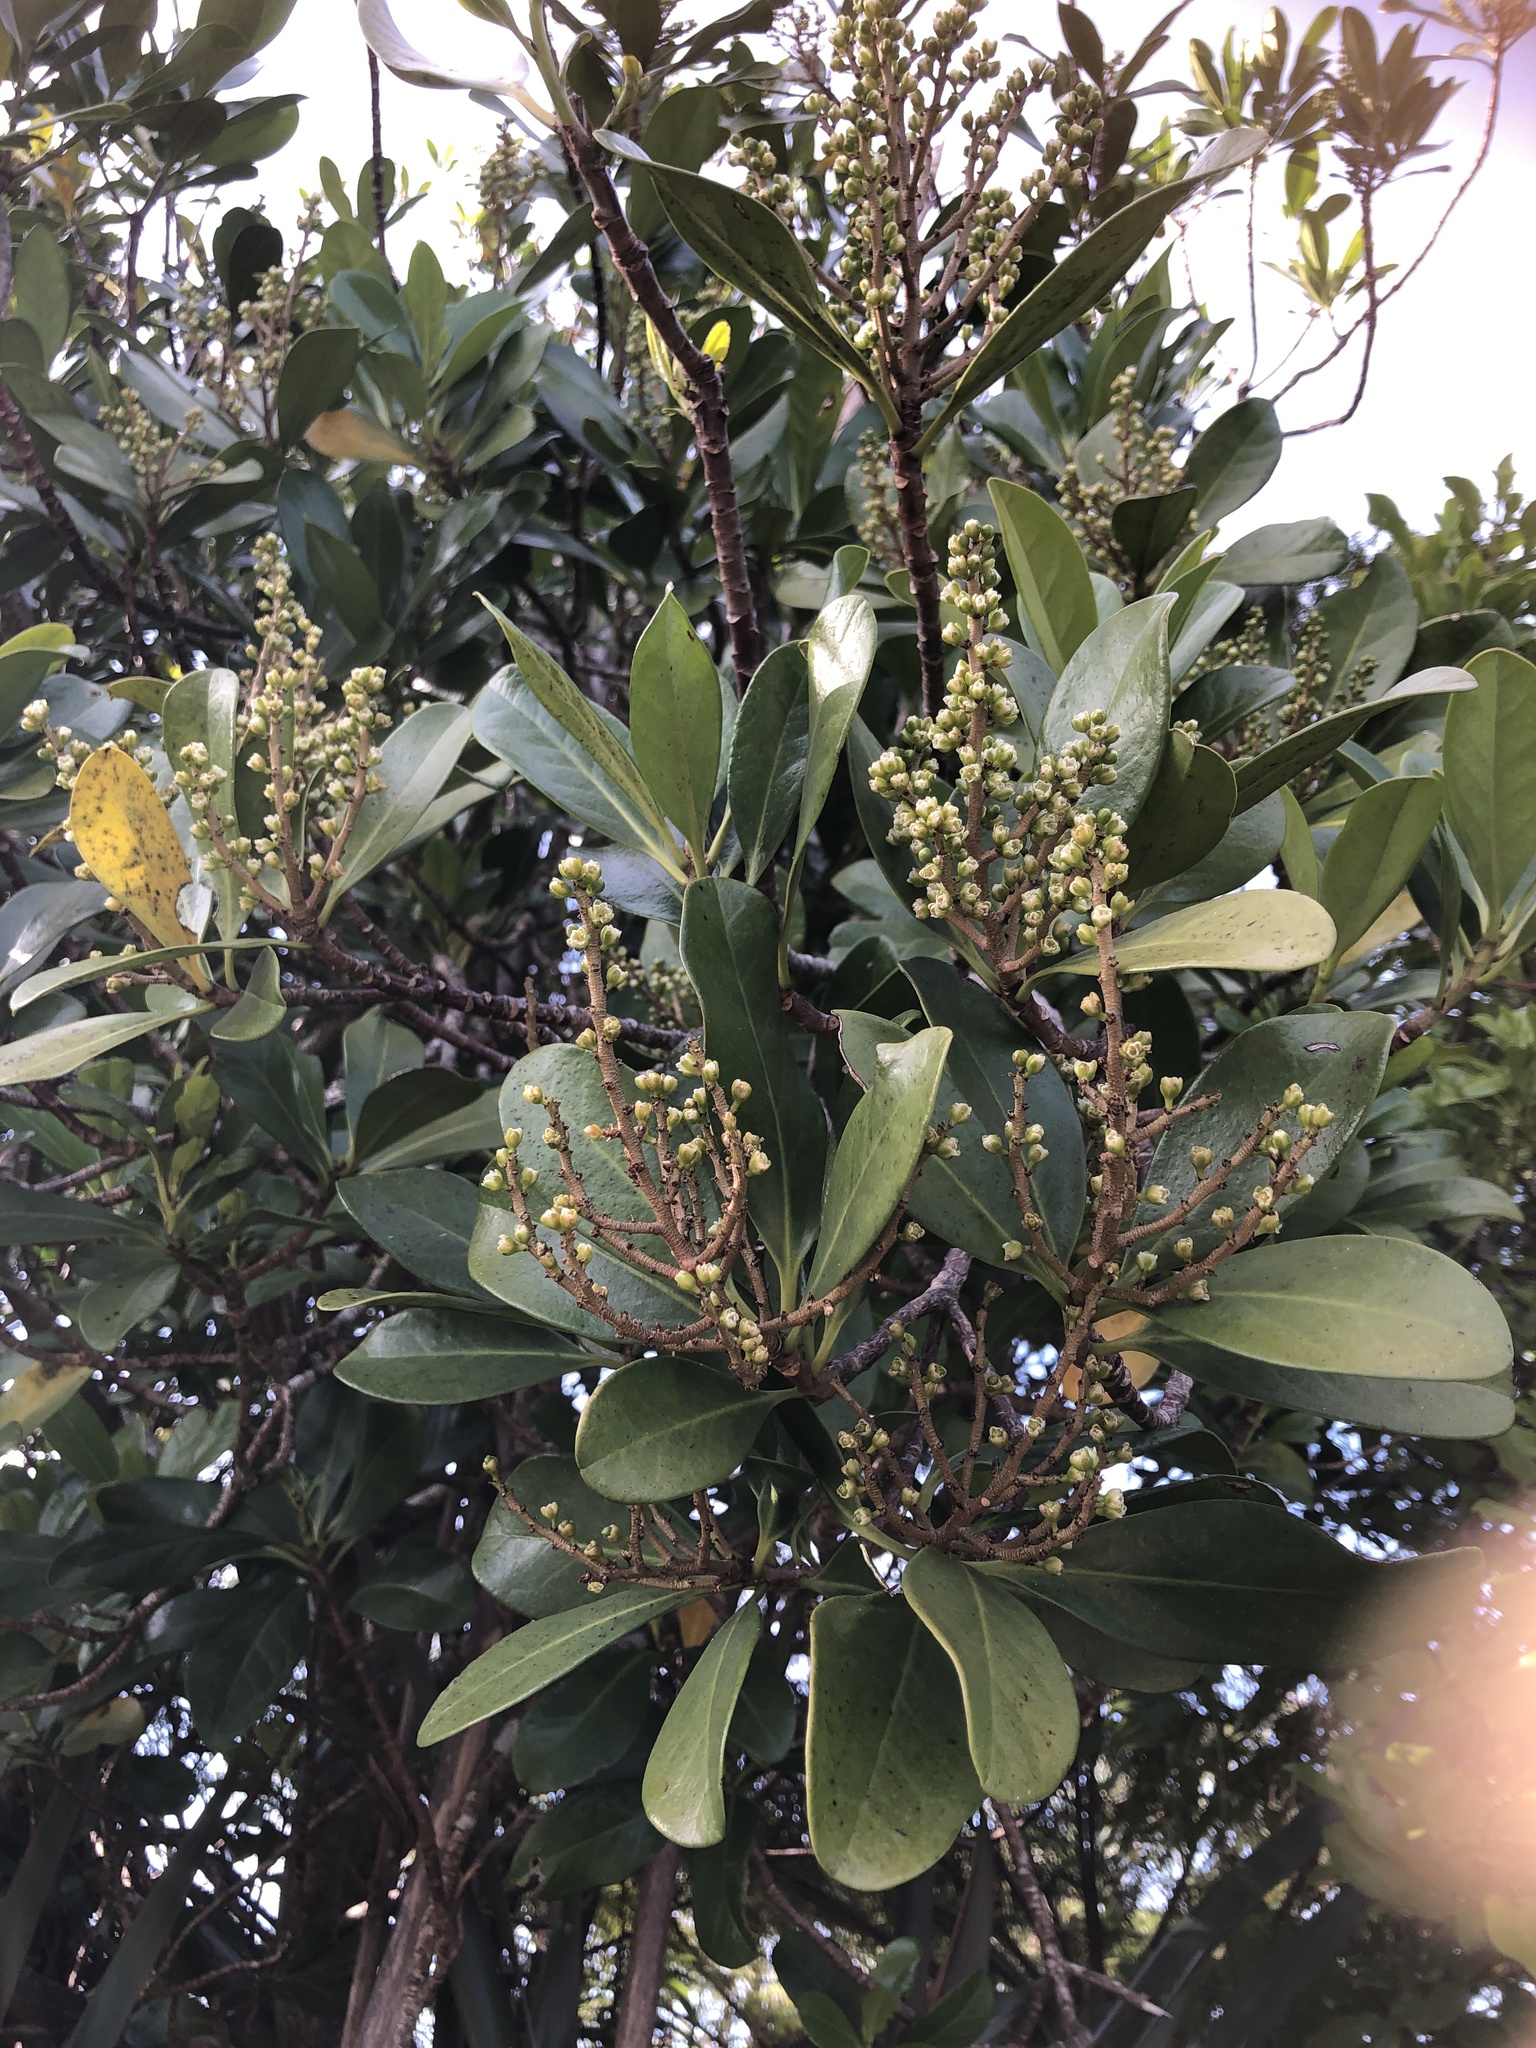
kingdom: Plantae
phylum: Tracheophyta
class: Magnoliopsida
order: Cucurbitales
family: Corynocarpaceae
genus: Corynocarpus
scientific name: Corynocarpus laevigatus
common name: New zealand laurel
